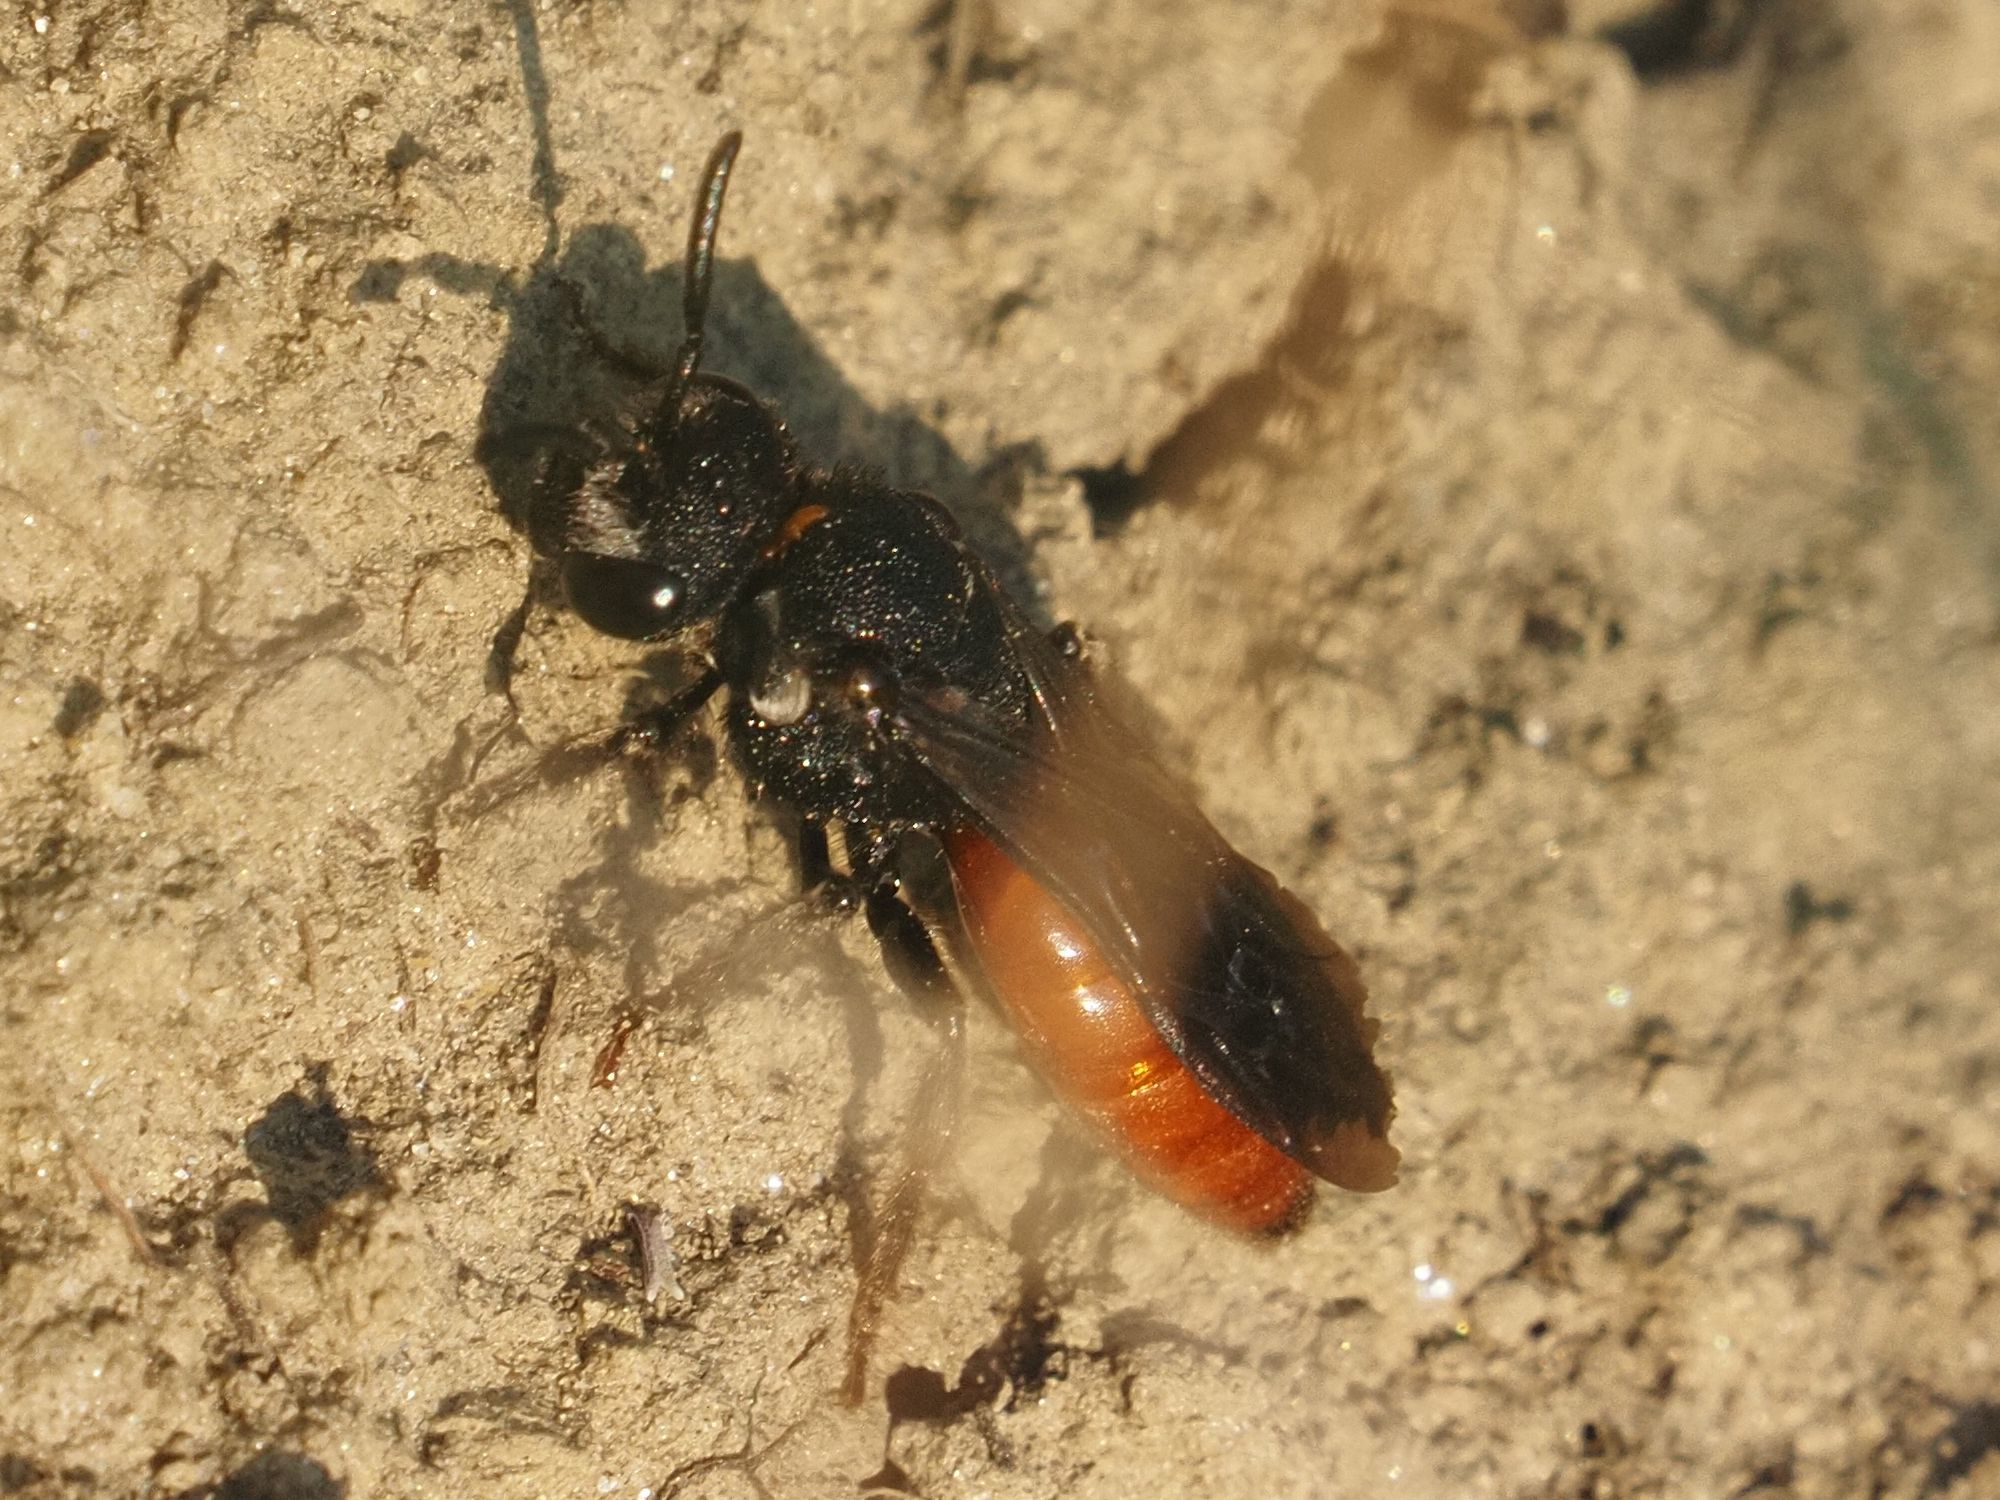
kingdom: Animalia
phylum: Arthropoda
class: Insecta
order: Hymenoptera
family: Halictidae
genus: Sphecodes
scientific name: Sphecodes albilabris
